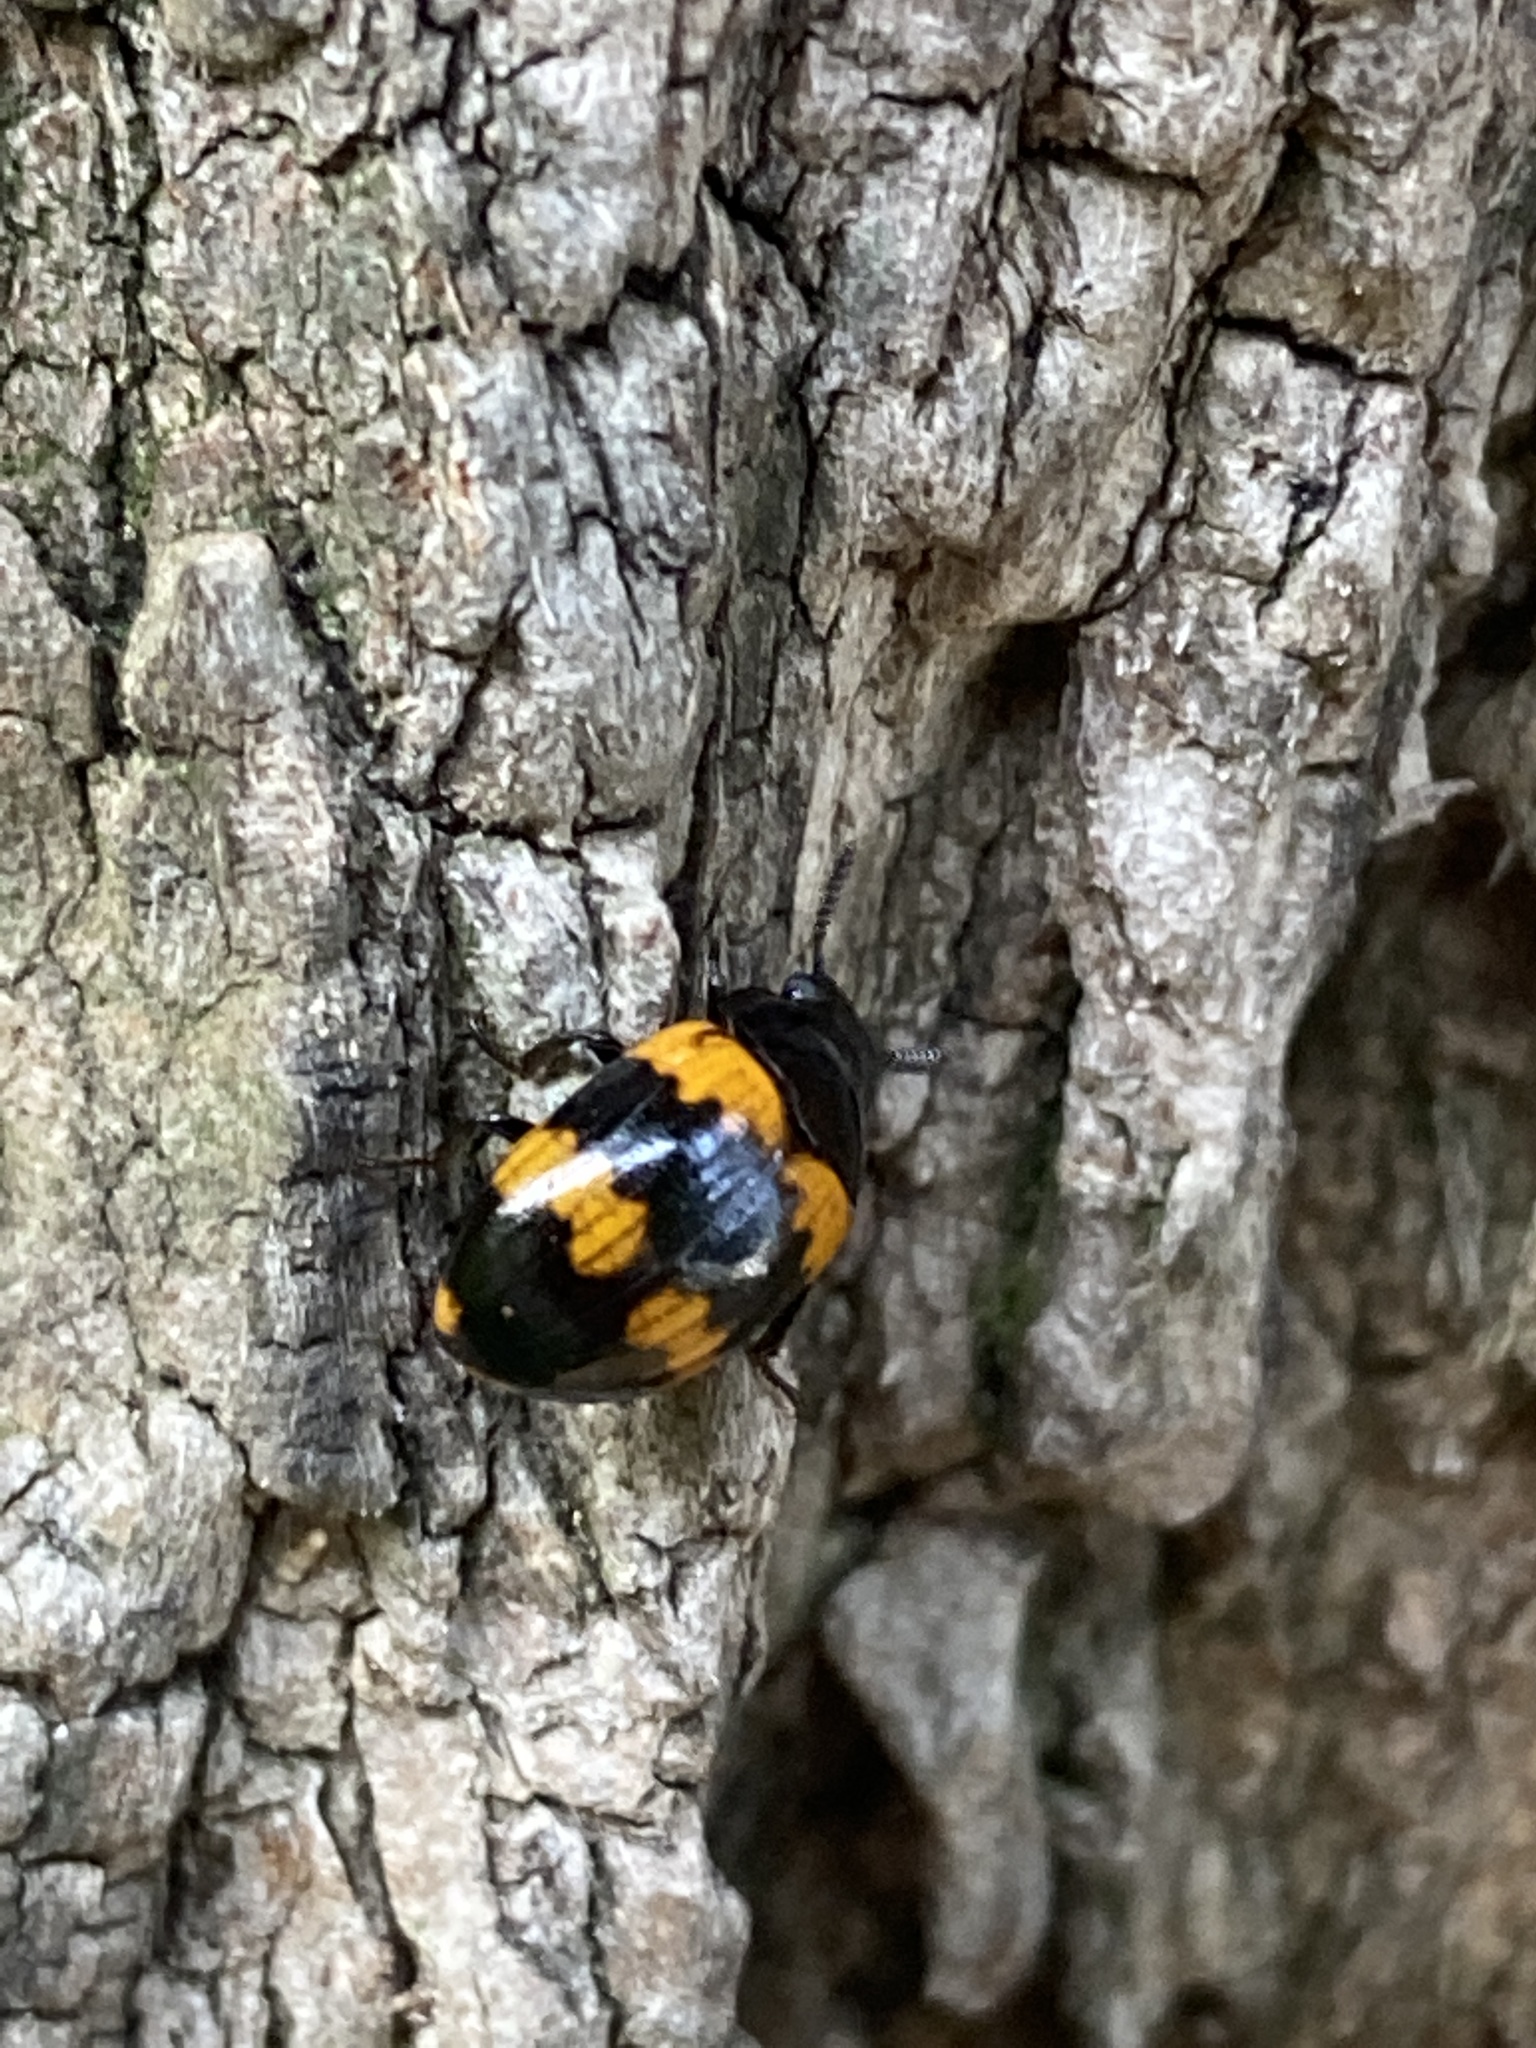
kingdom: Animalia
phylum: Arthropoda
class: Insecta
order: Coleoptera
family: Tenebrionidae
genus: Diaperis
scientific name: Diaperis boleti
